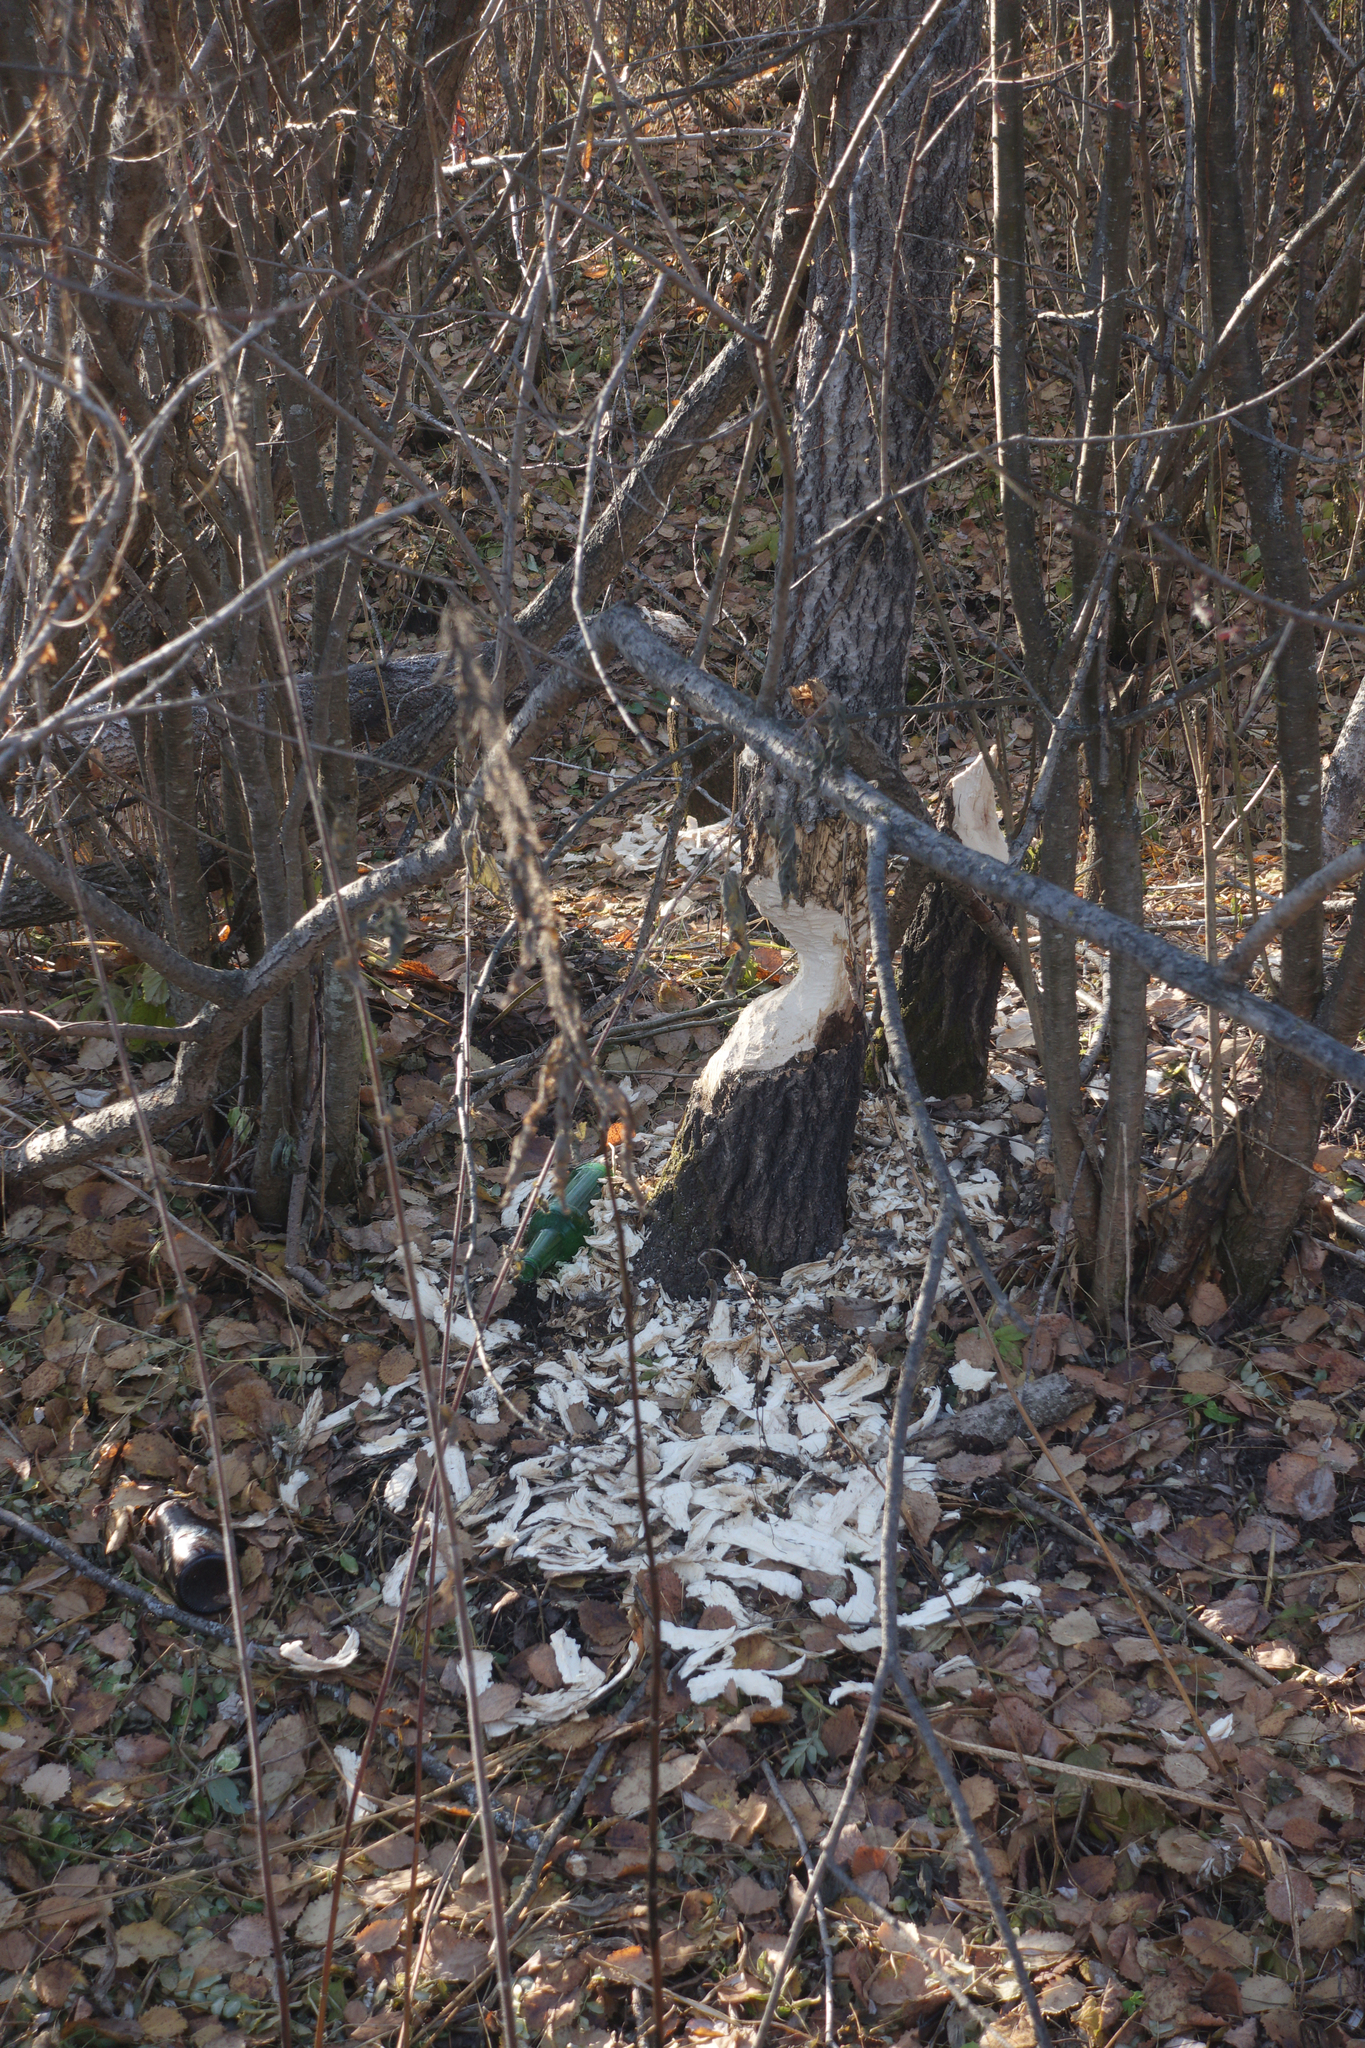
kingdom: Animalia
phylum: Chordata
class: Mammalia
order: Rodentia
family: Castoridae
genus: Castor
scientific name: Castor fiber
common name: Eurasian beaver
